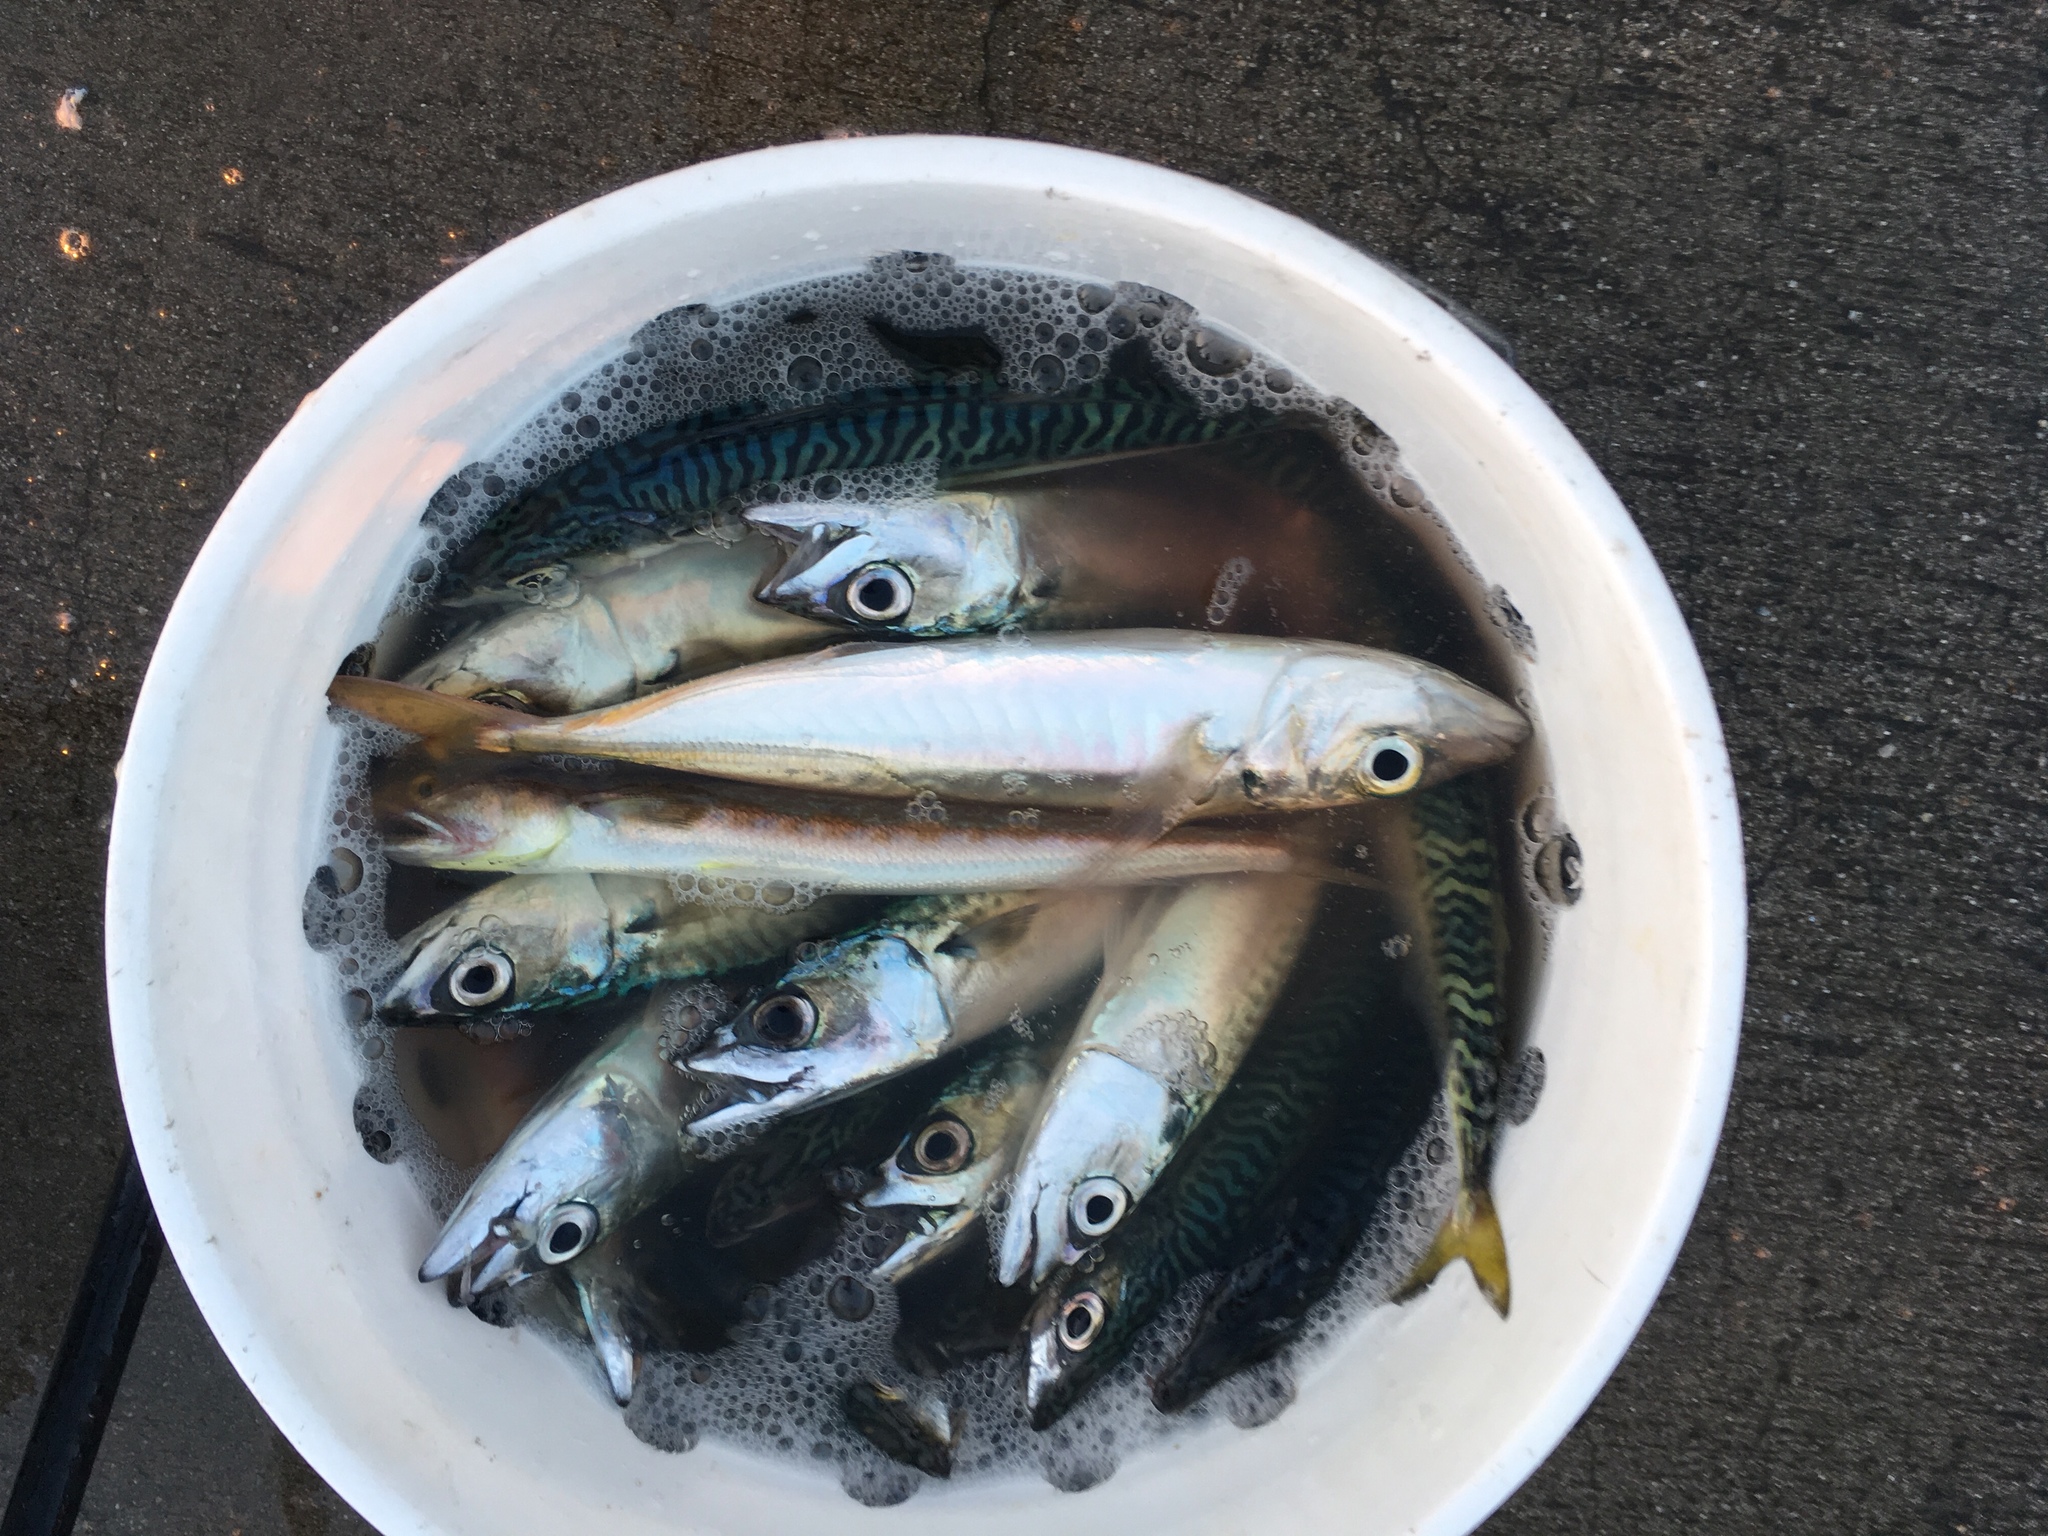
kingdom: Animalia
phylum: Chordata
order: Perciformes
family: Scombridae
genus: Scomber
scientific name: Scomber japonicus
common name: Chub mackerel
